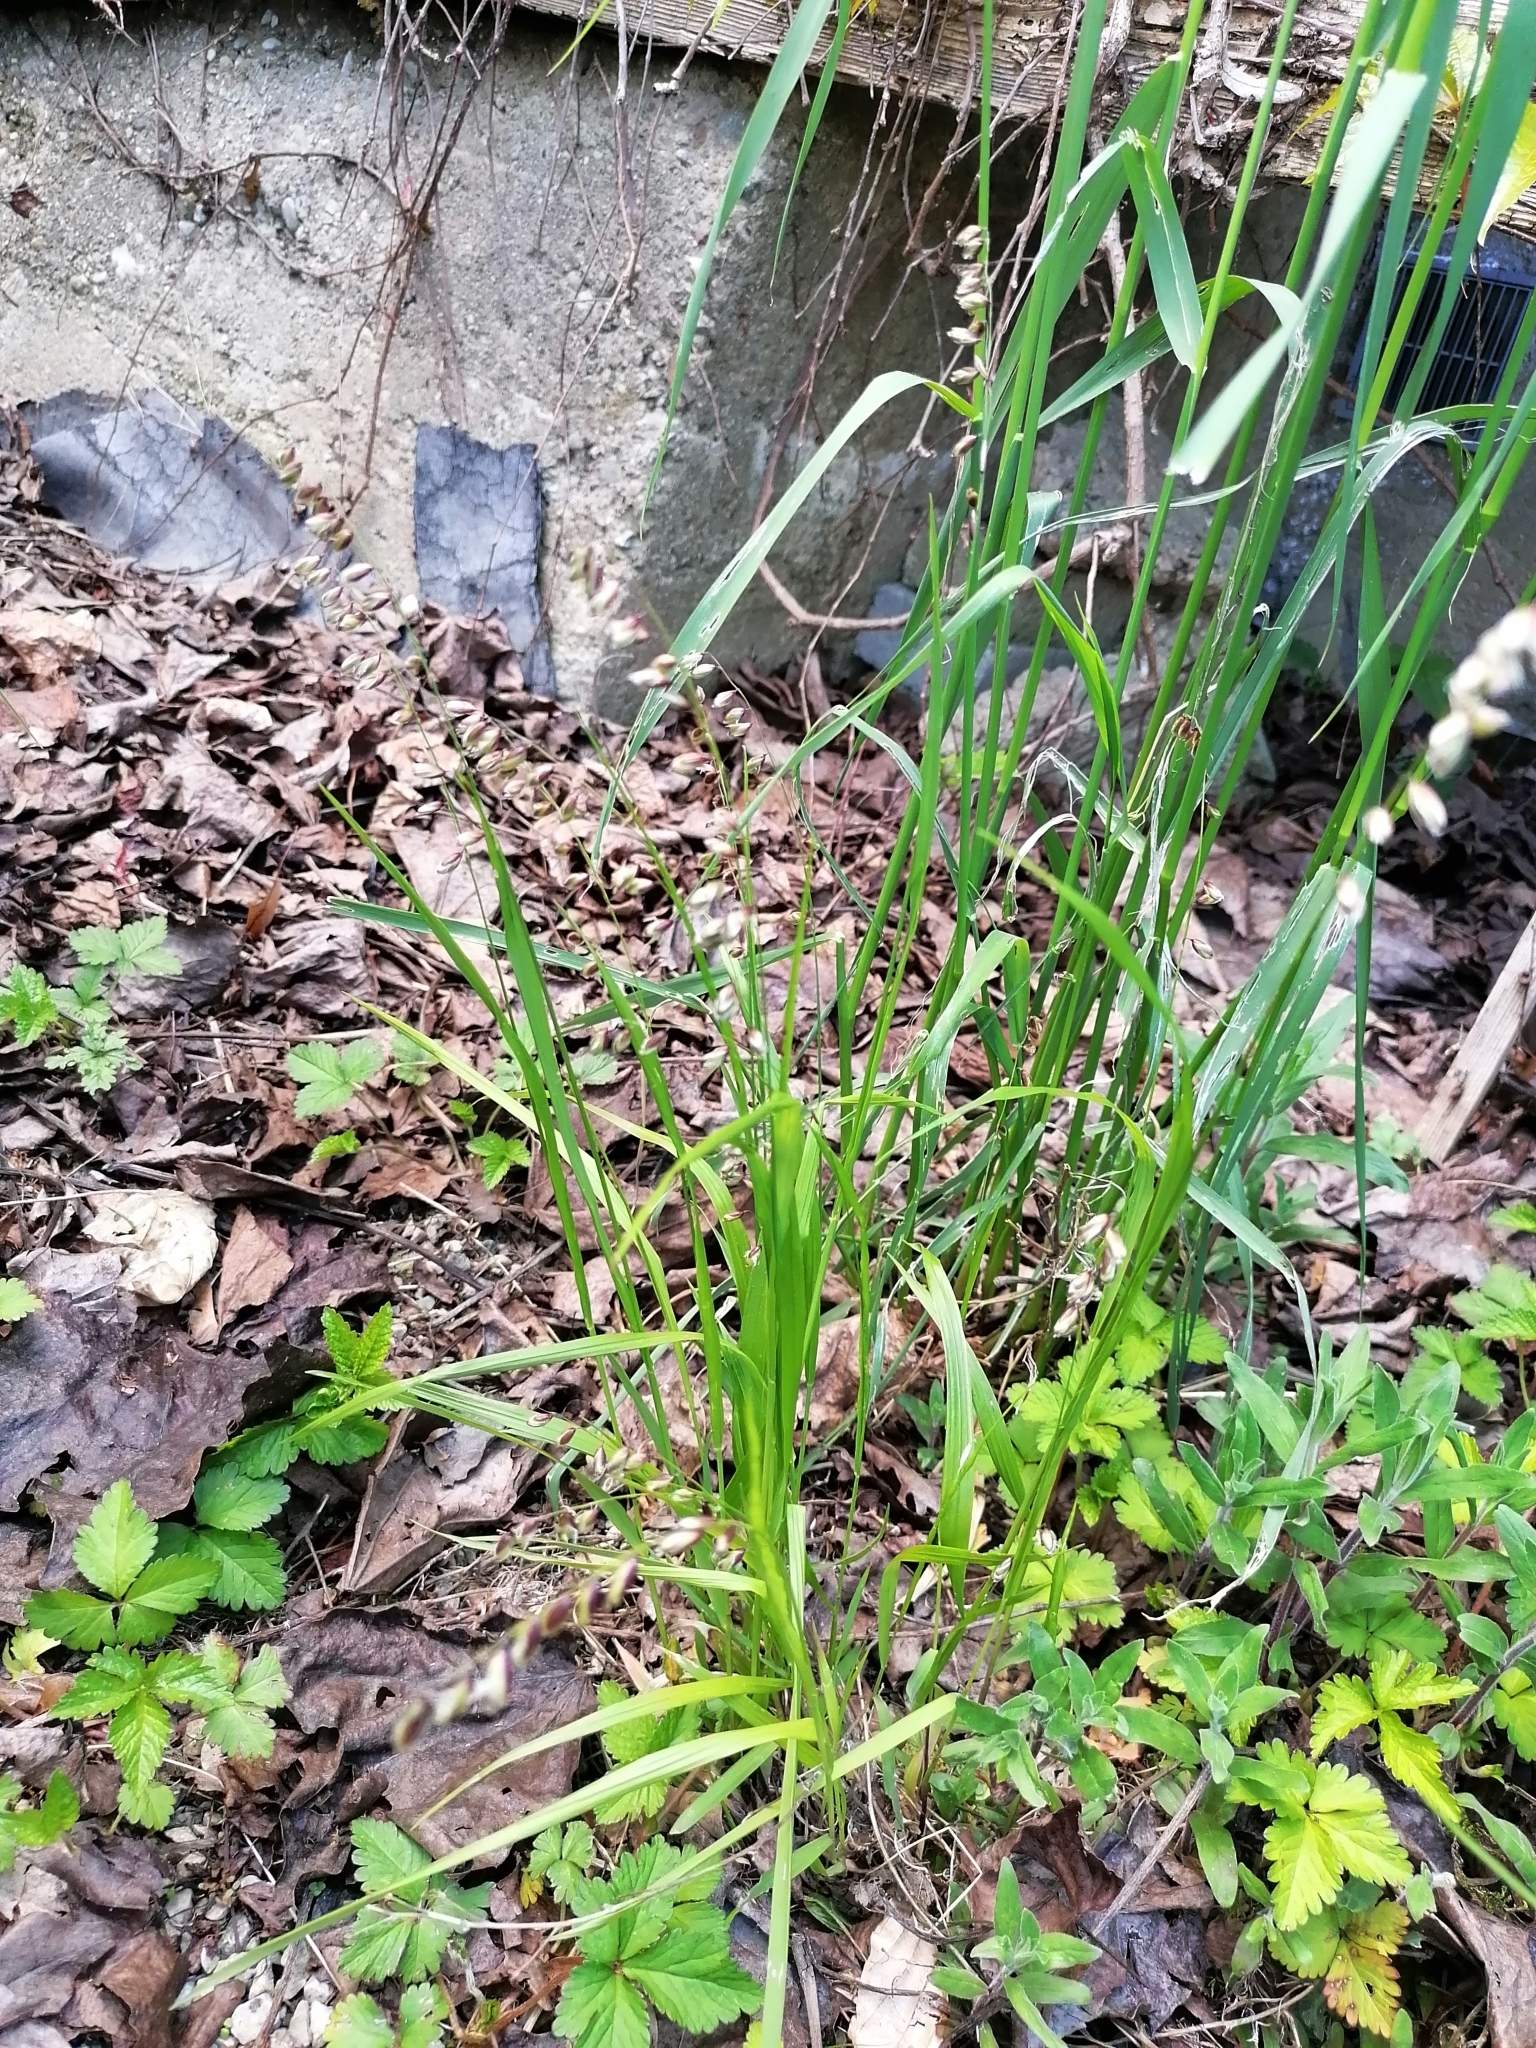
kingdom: Plantae
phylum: Tracheophyta
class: Liliopsida
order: Poales
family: Poaceae
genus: Melica
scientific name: Melica nutans
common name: Mountain melick
